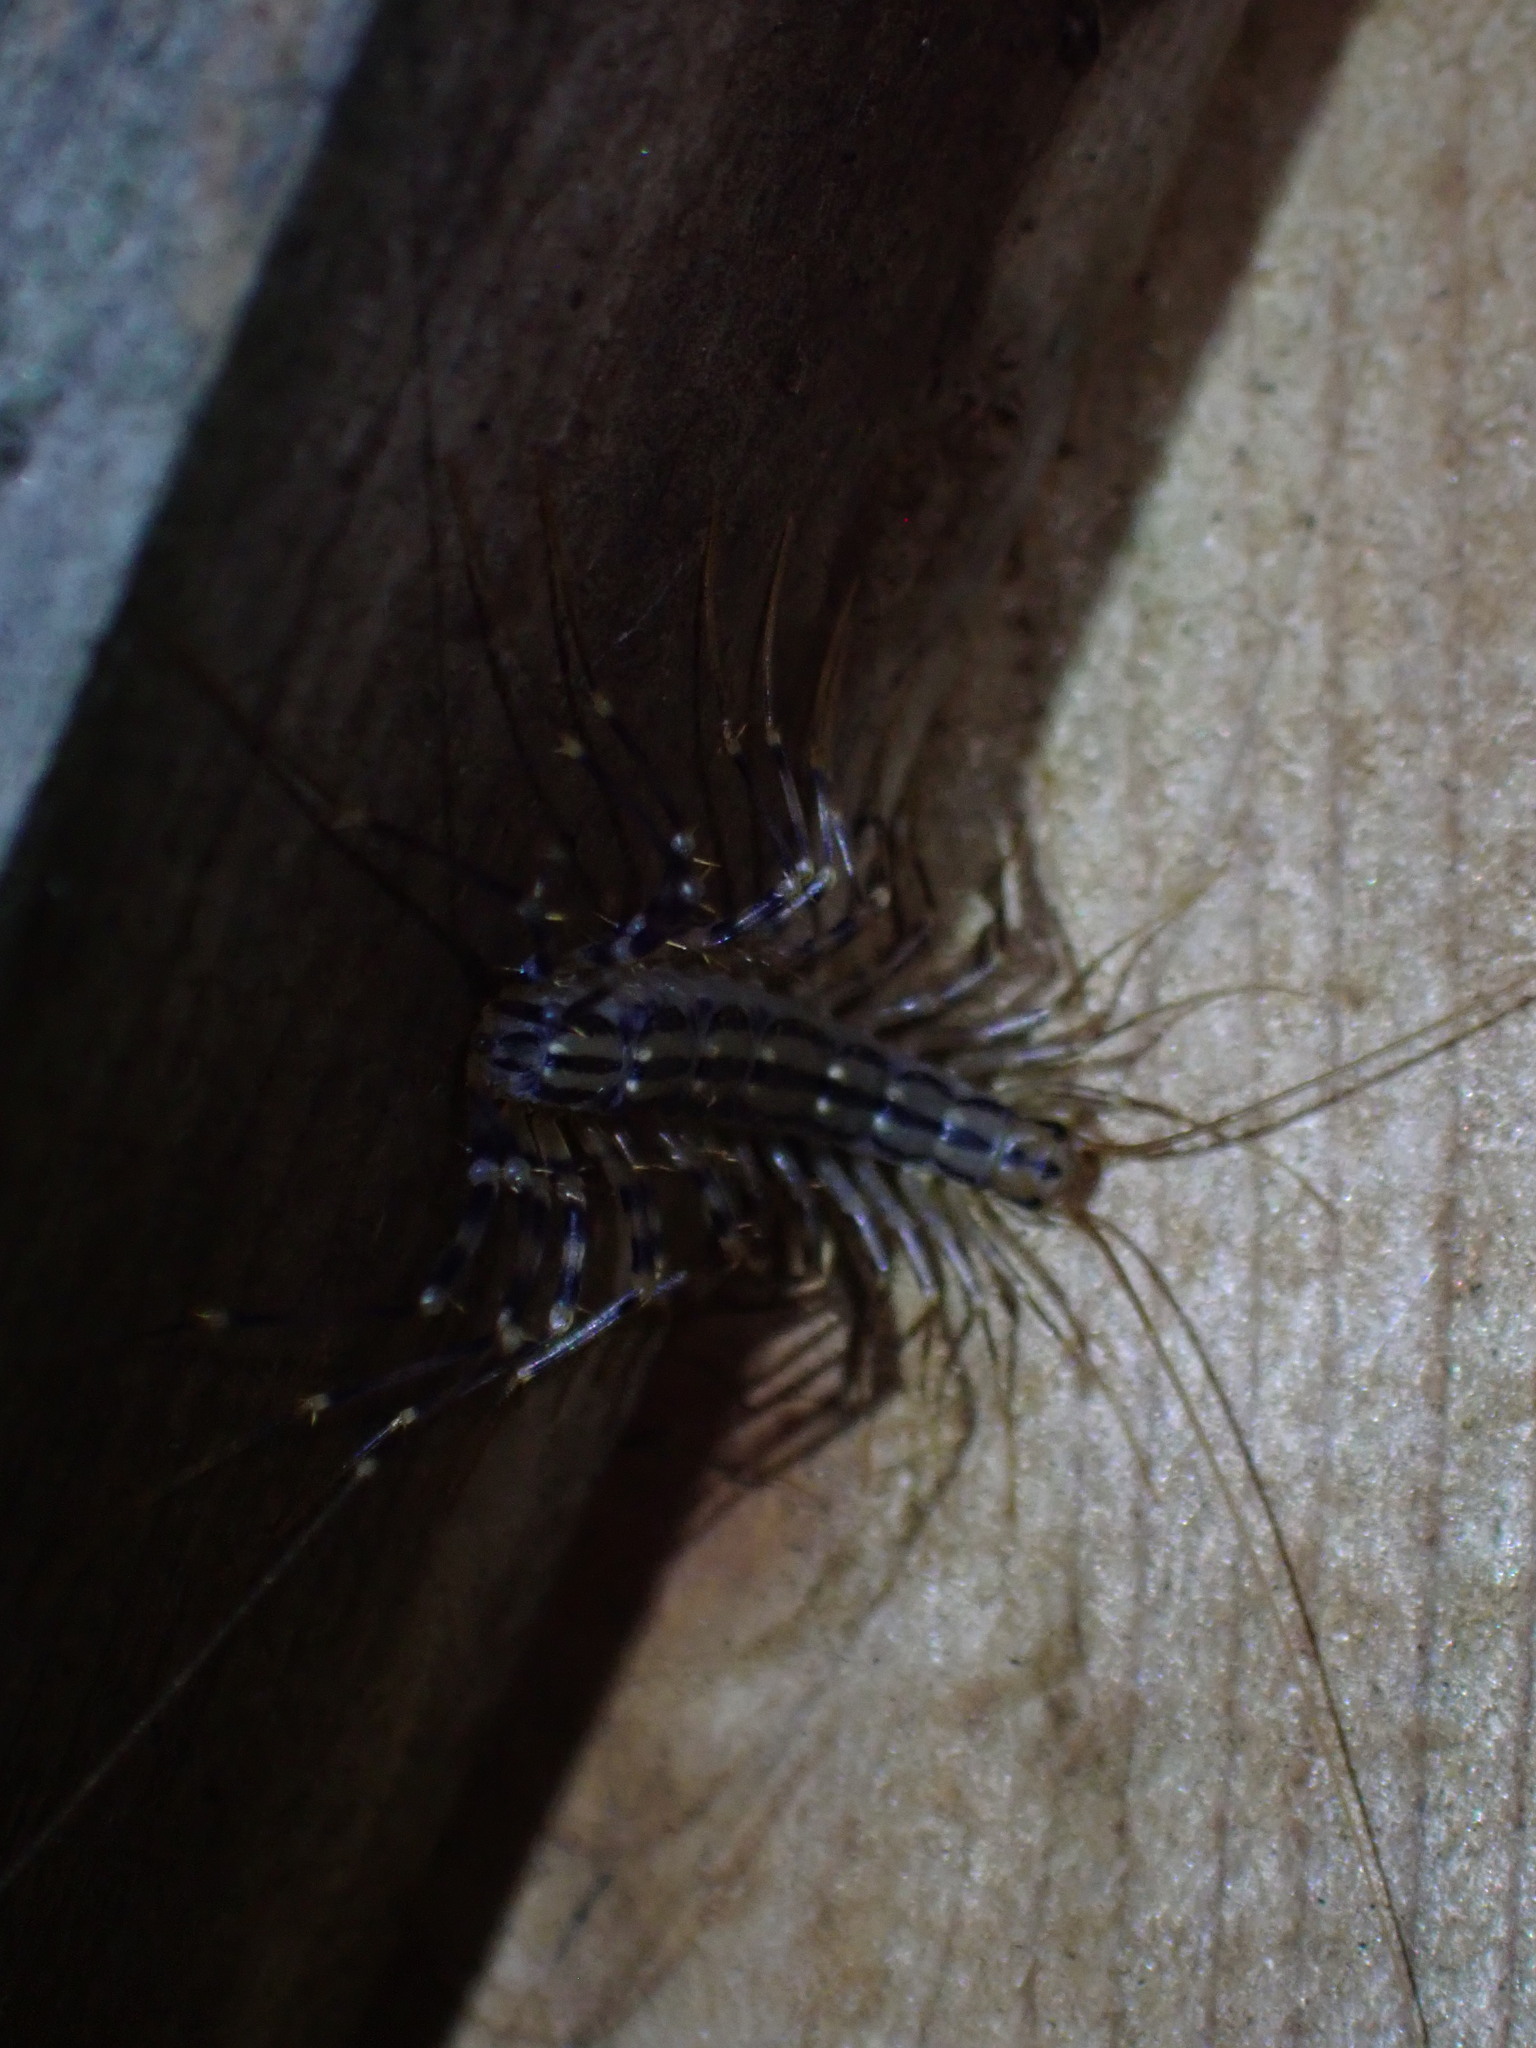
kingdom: Animalia
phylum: Arthropoda
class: Chilopoda
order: Scutigeromorpha
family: Scutigeridae
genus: Scutigera
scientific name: Scutigera coleoptrata
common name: House centipede
